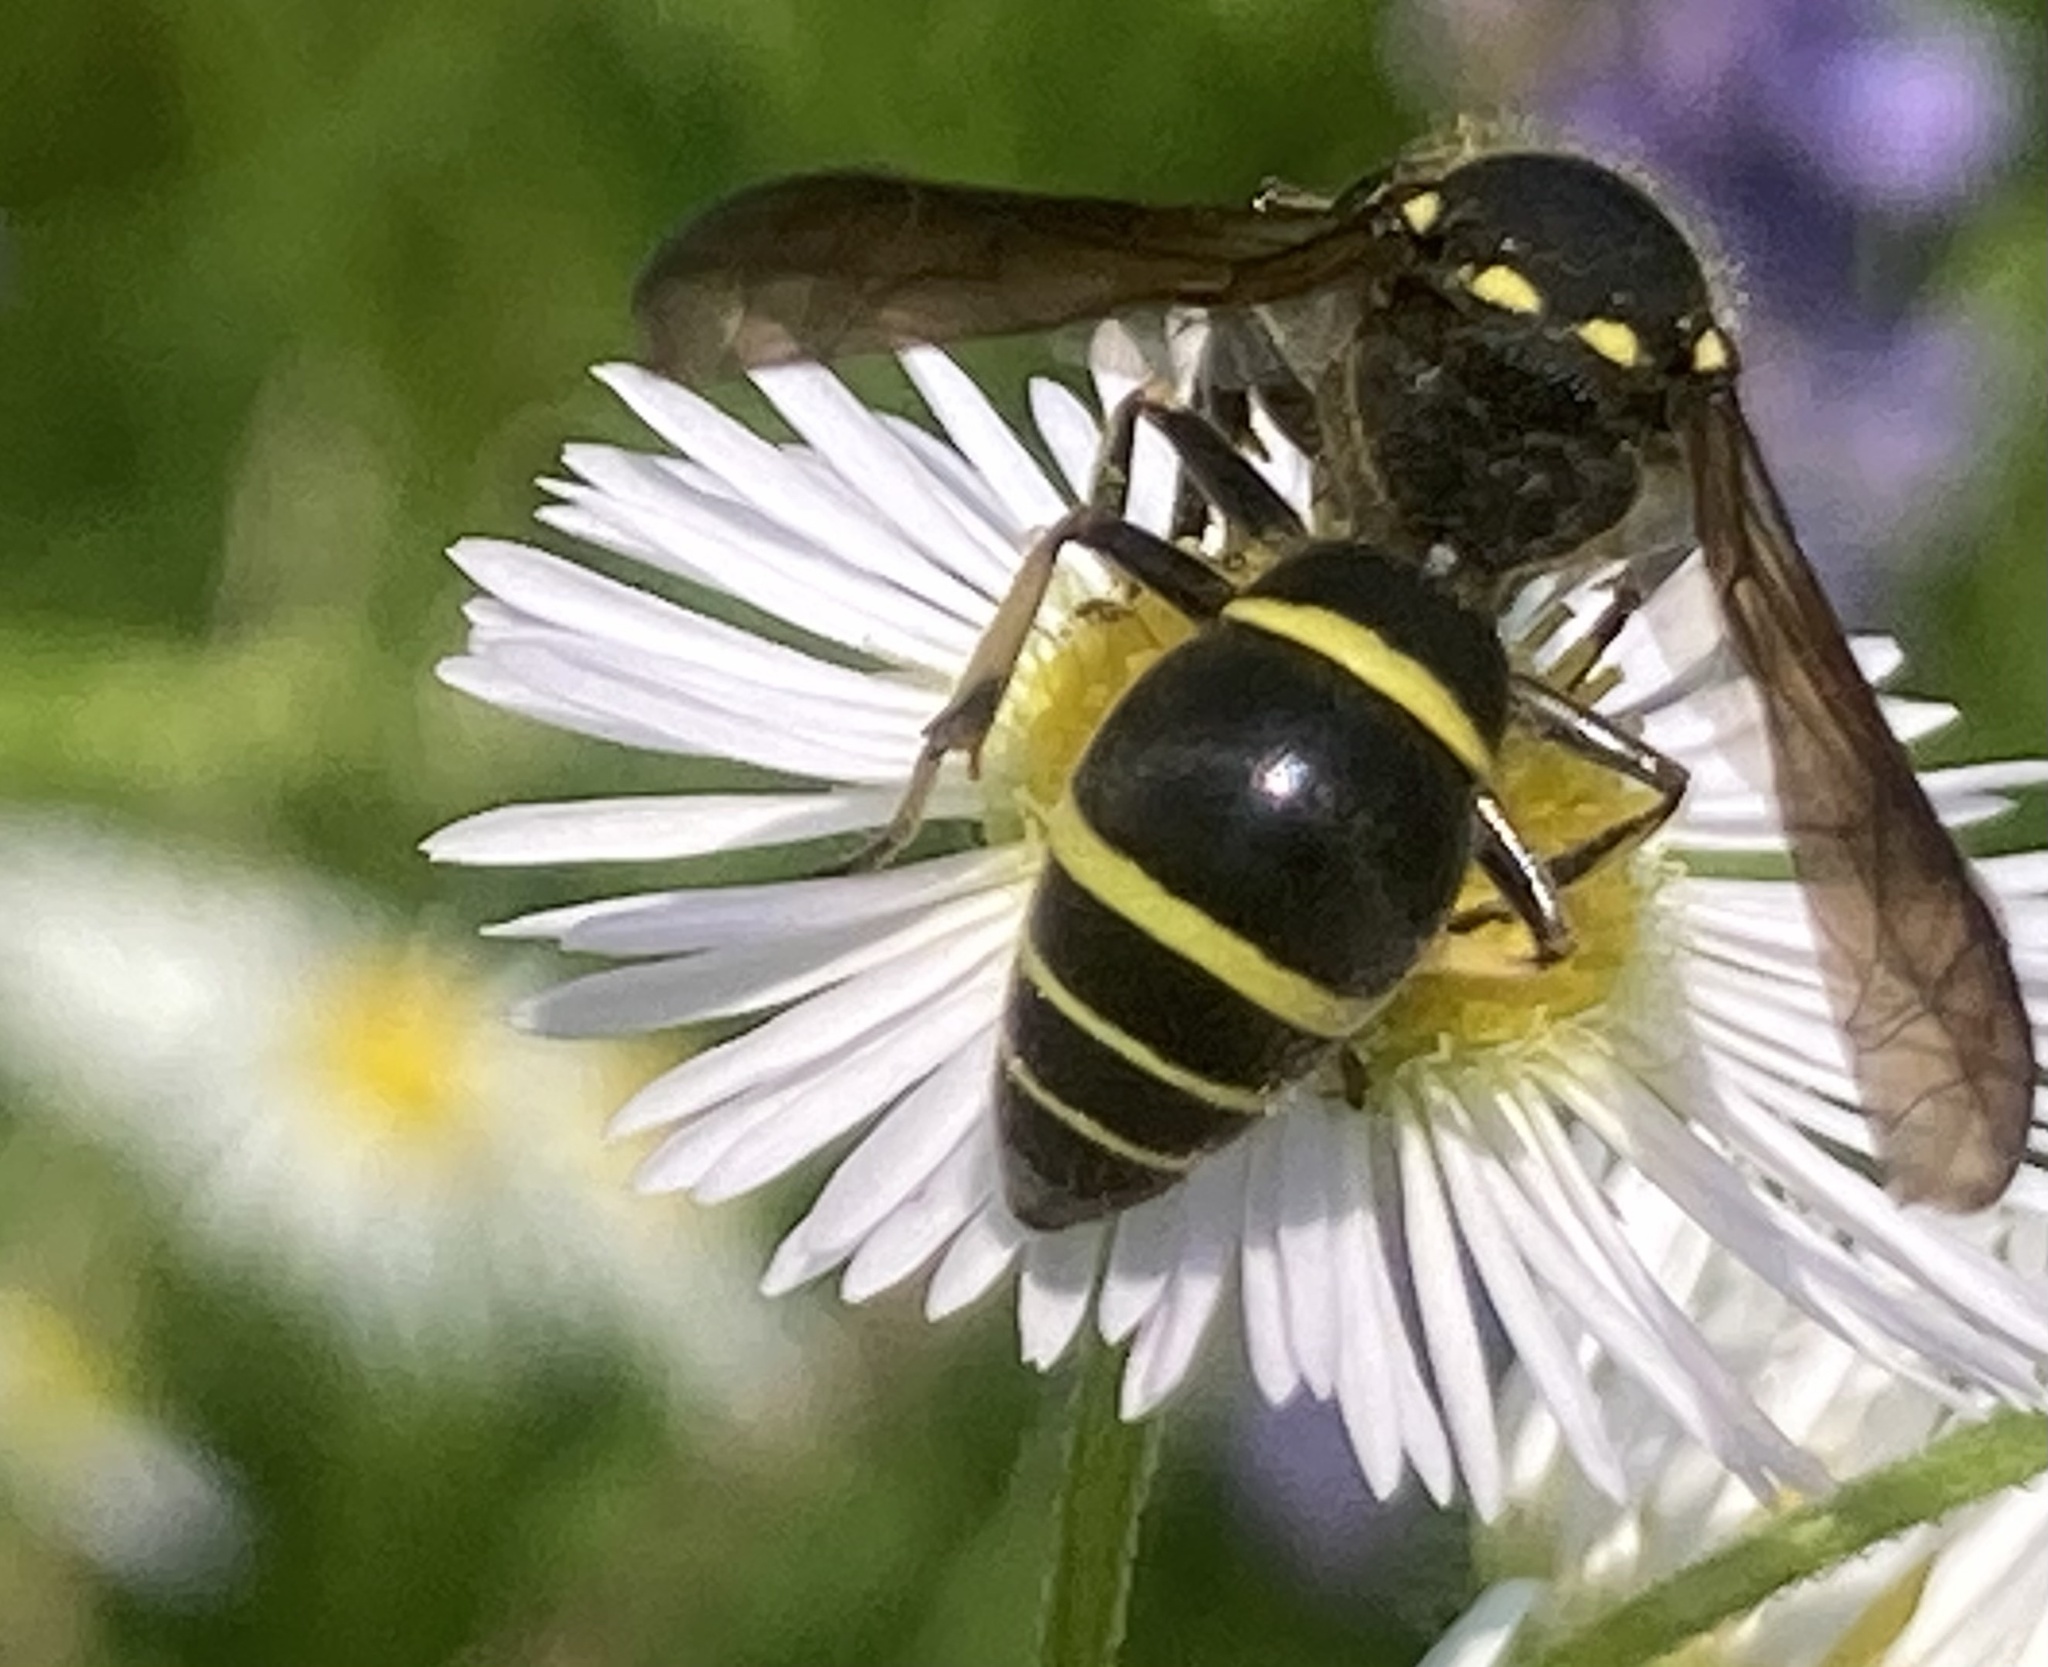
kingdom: Animalia
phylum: Arthropoda
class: Insecta
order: Hymenoptera
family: Vespidae
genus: Ancistrocerus
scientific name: Ancistrocerus
